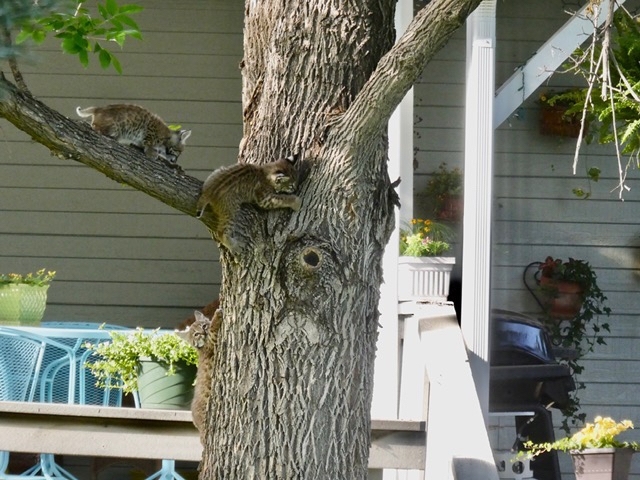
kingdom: Animalia
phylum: Chordata
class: Mammalia
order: Carnivora
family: Felidae
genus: Lynx
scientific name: Lynx rufus
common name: Bobcat
